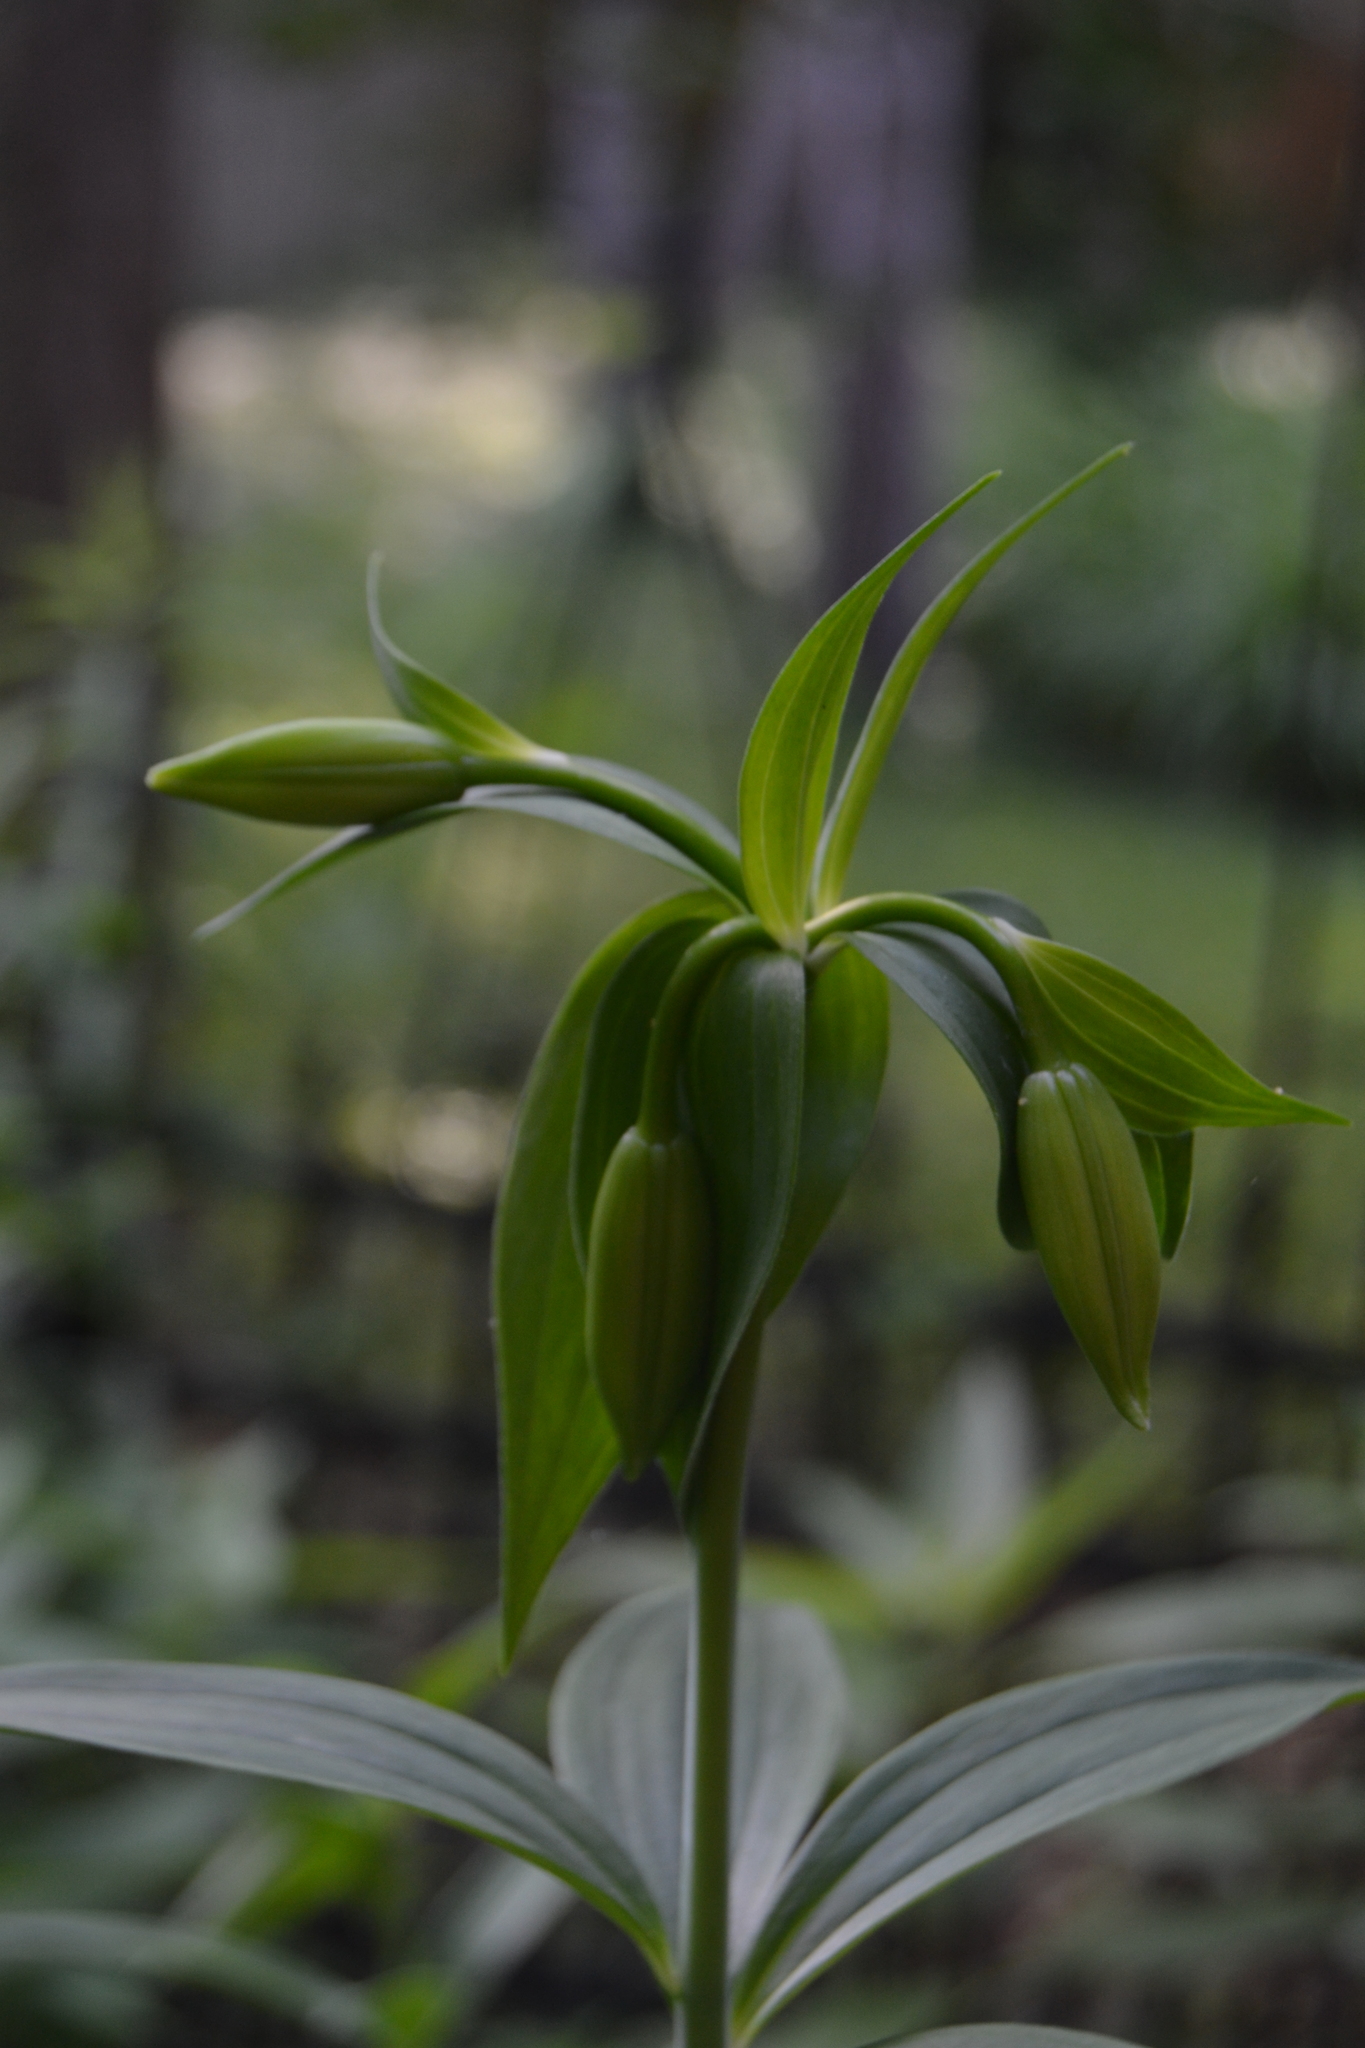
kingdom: Plantae
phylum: Tracheophyta
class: Liliopsida
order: Liliales
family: Liliaceae
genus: Lilium
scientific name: Lilium michiganense
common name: Michigan lily
